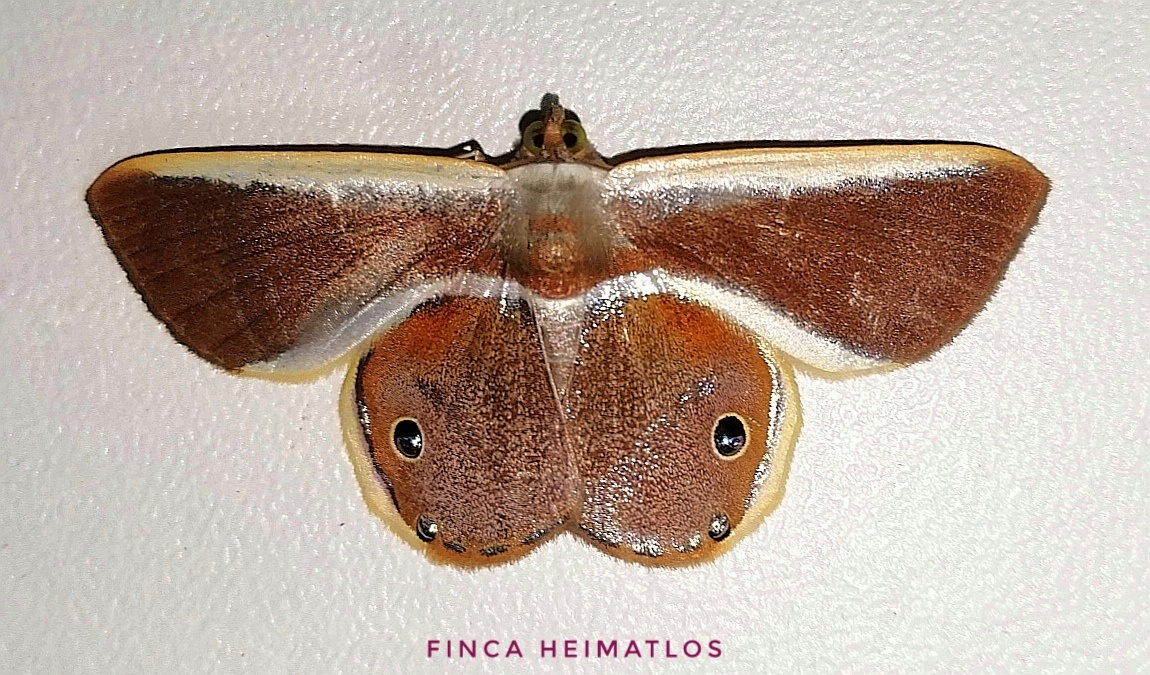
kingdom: Animalia
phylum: Arthropoda
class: Insecta
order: Lepidoptera
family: Geometridae
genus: Opisthoxia
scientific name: Opisthoxia eusiraria
